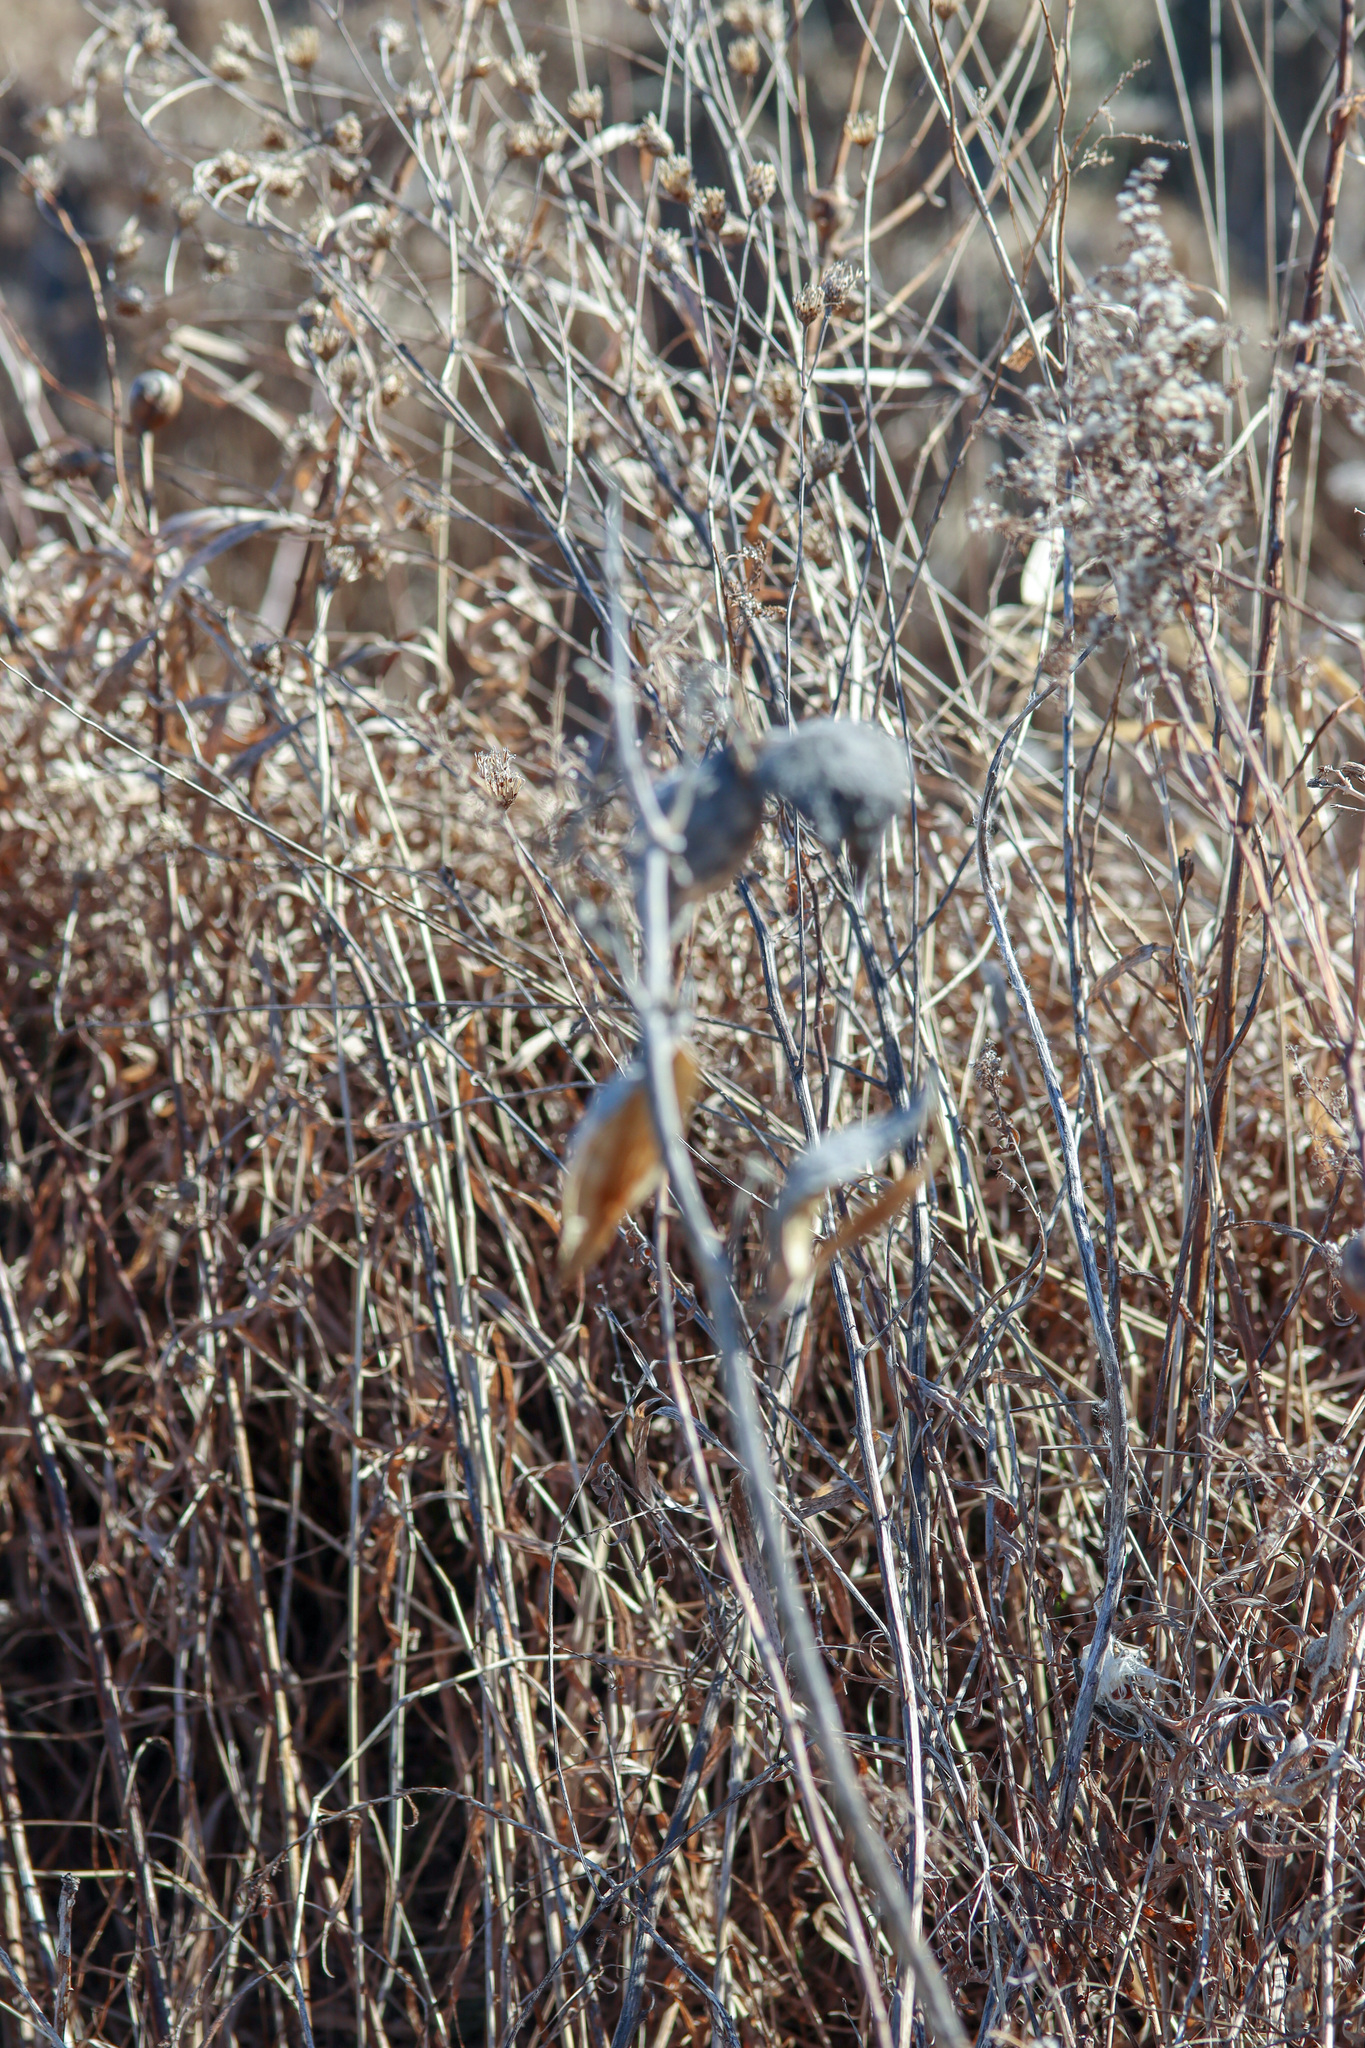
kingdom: Plantae
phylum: Tracheophyta
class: Magnoliopsida
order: Gentianales
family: Apocynaceae
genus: Asclepias
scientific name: Asclepias syriaca
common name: Common milkweed
